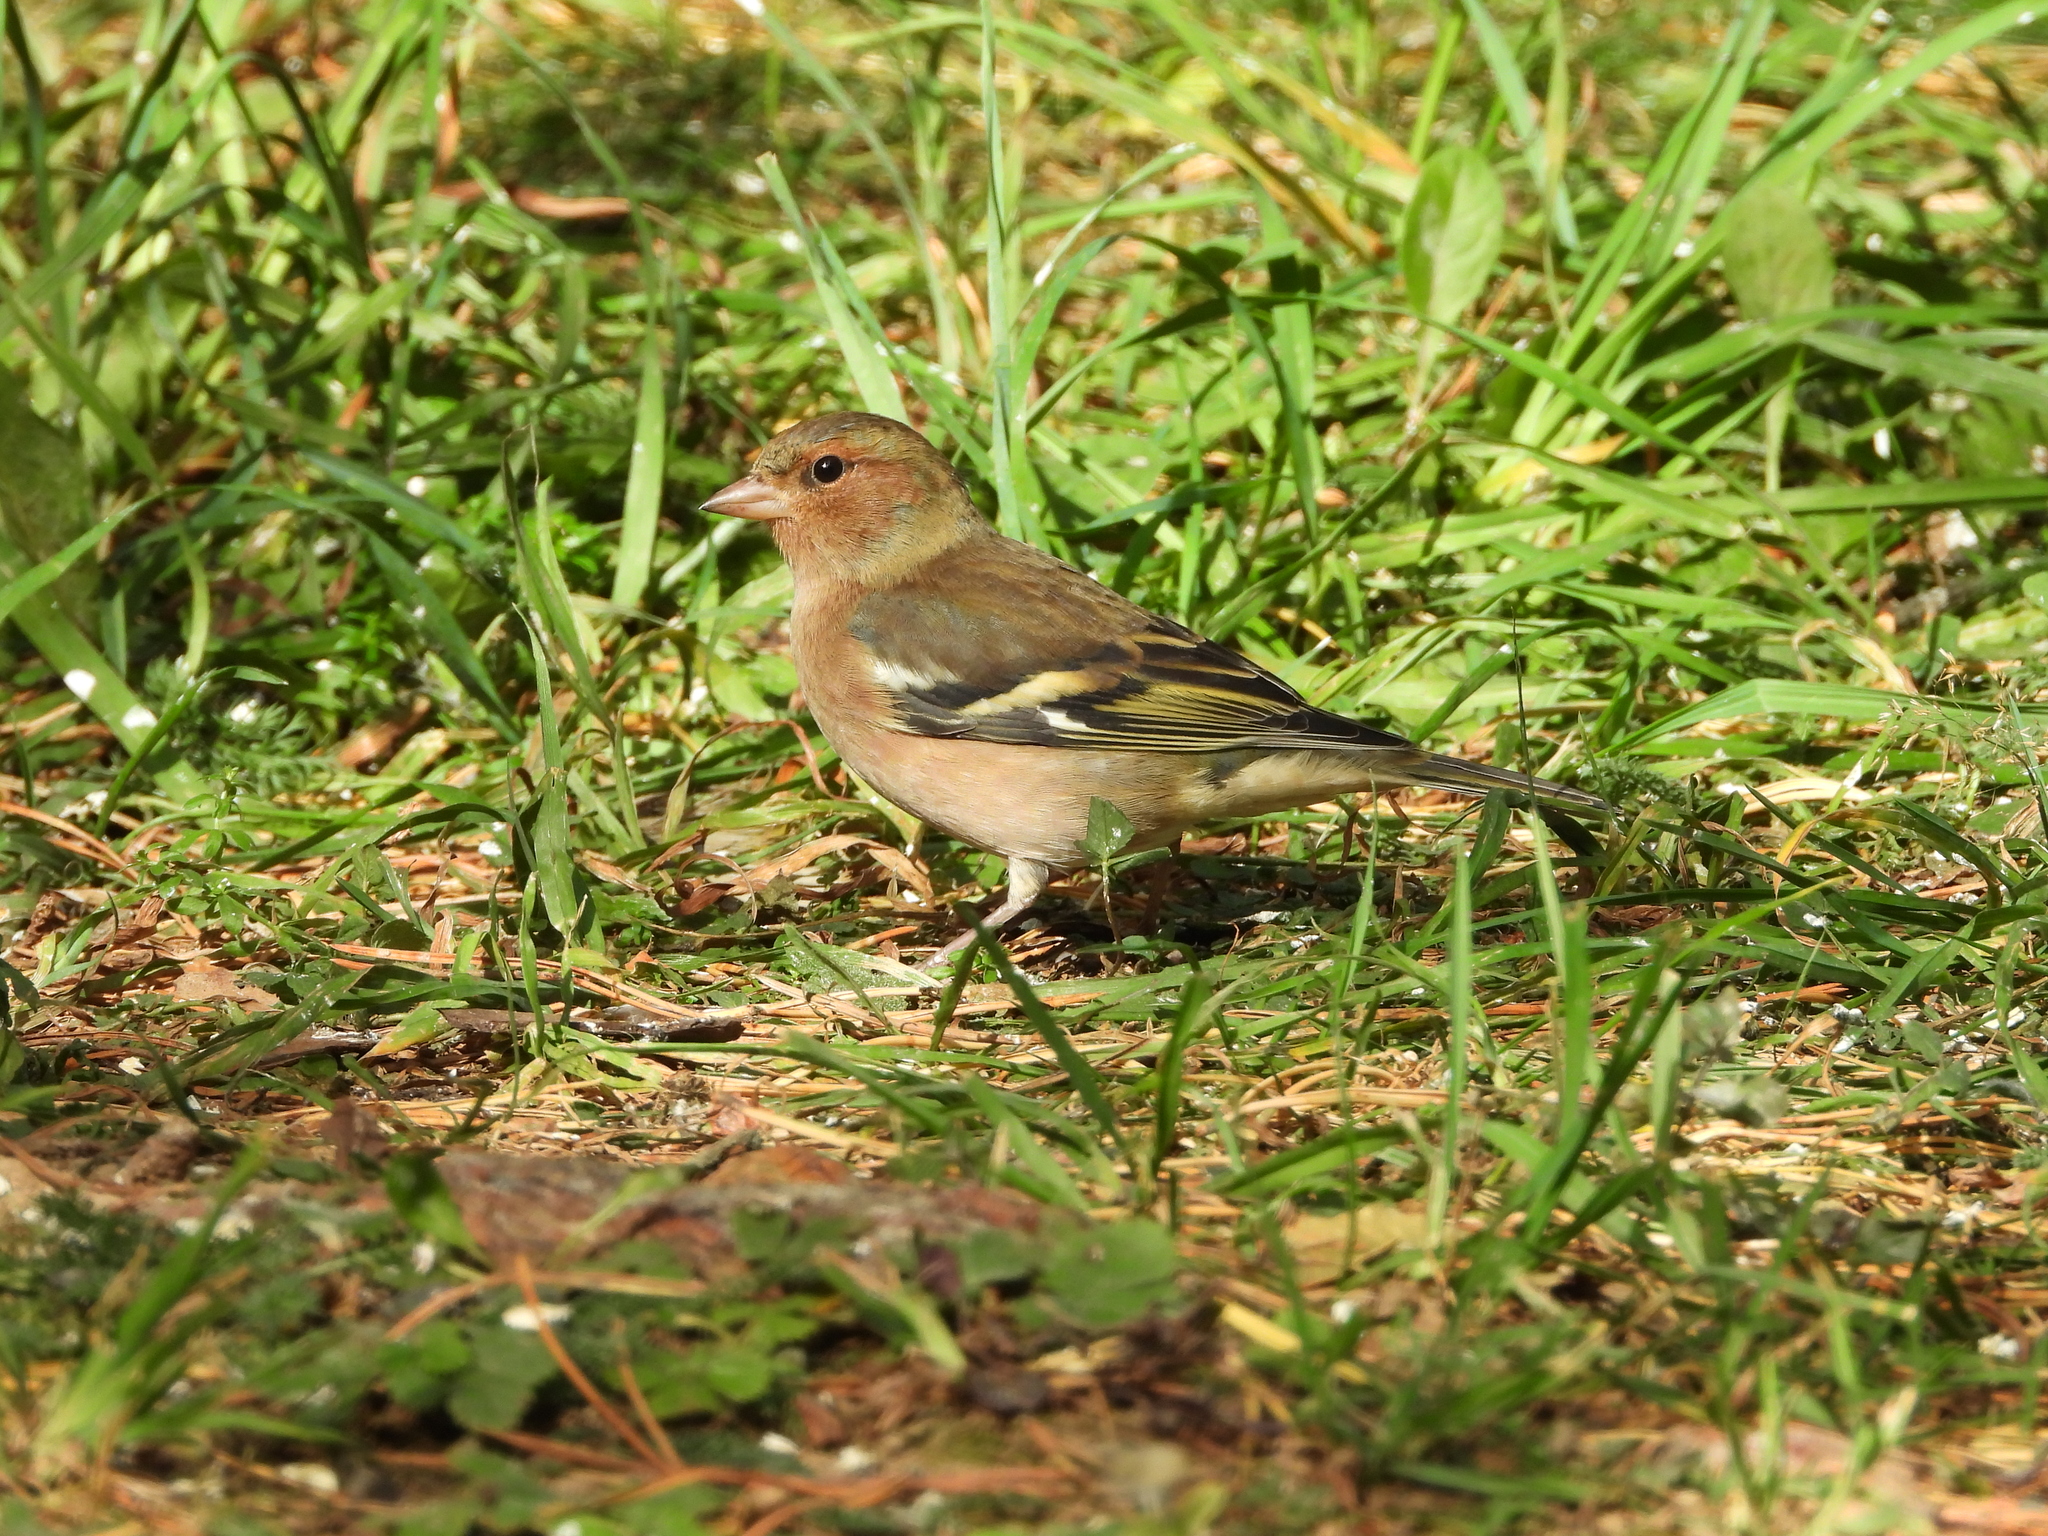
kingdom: Animalia
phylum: Chordata
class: Aves
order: Passeriformes
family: Fringillidae
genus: Fringilla
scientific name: Fringilla coelebs
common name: Common chaffinch
